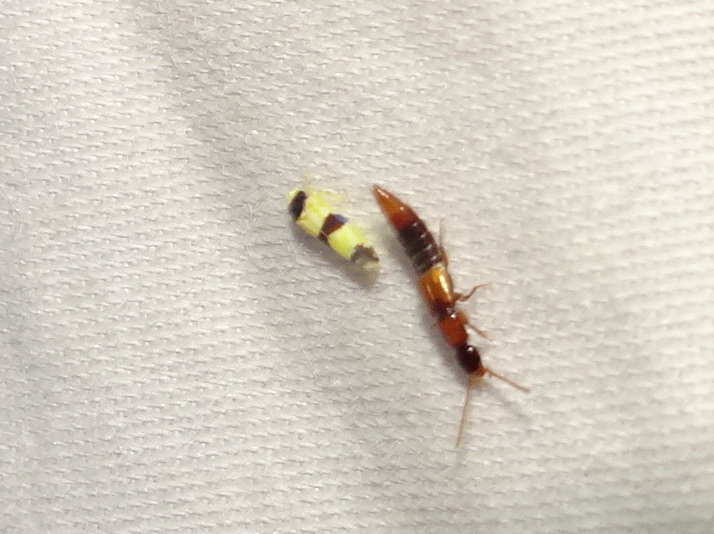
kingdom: Animalia
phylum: Arthropoda
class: Insecta
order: Hemiptera
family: Cicadellidae
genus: Erythroneura
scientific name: Erythroneura tricincta
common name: The threebanded grape leafhopper
